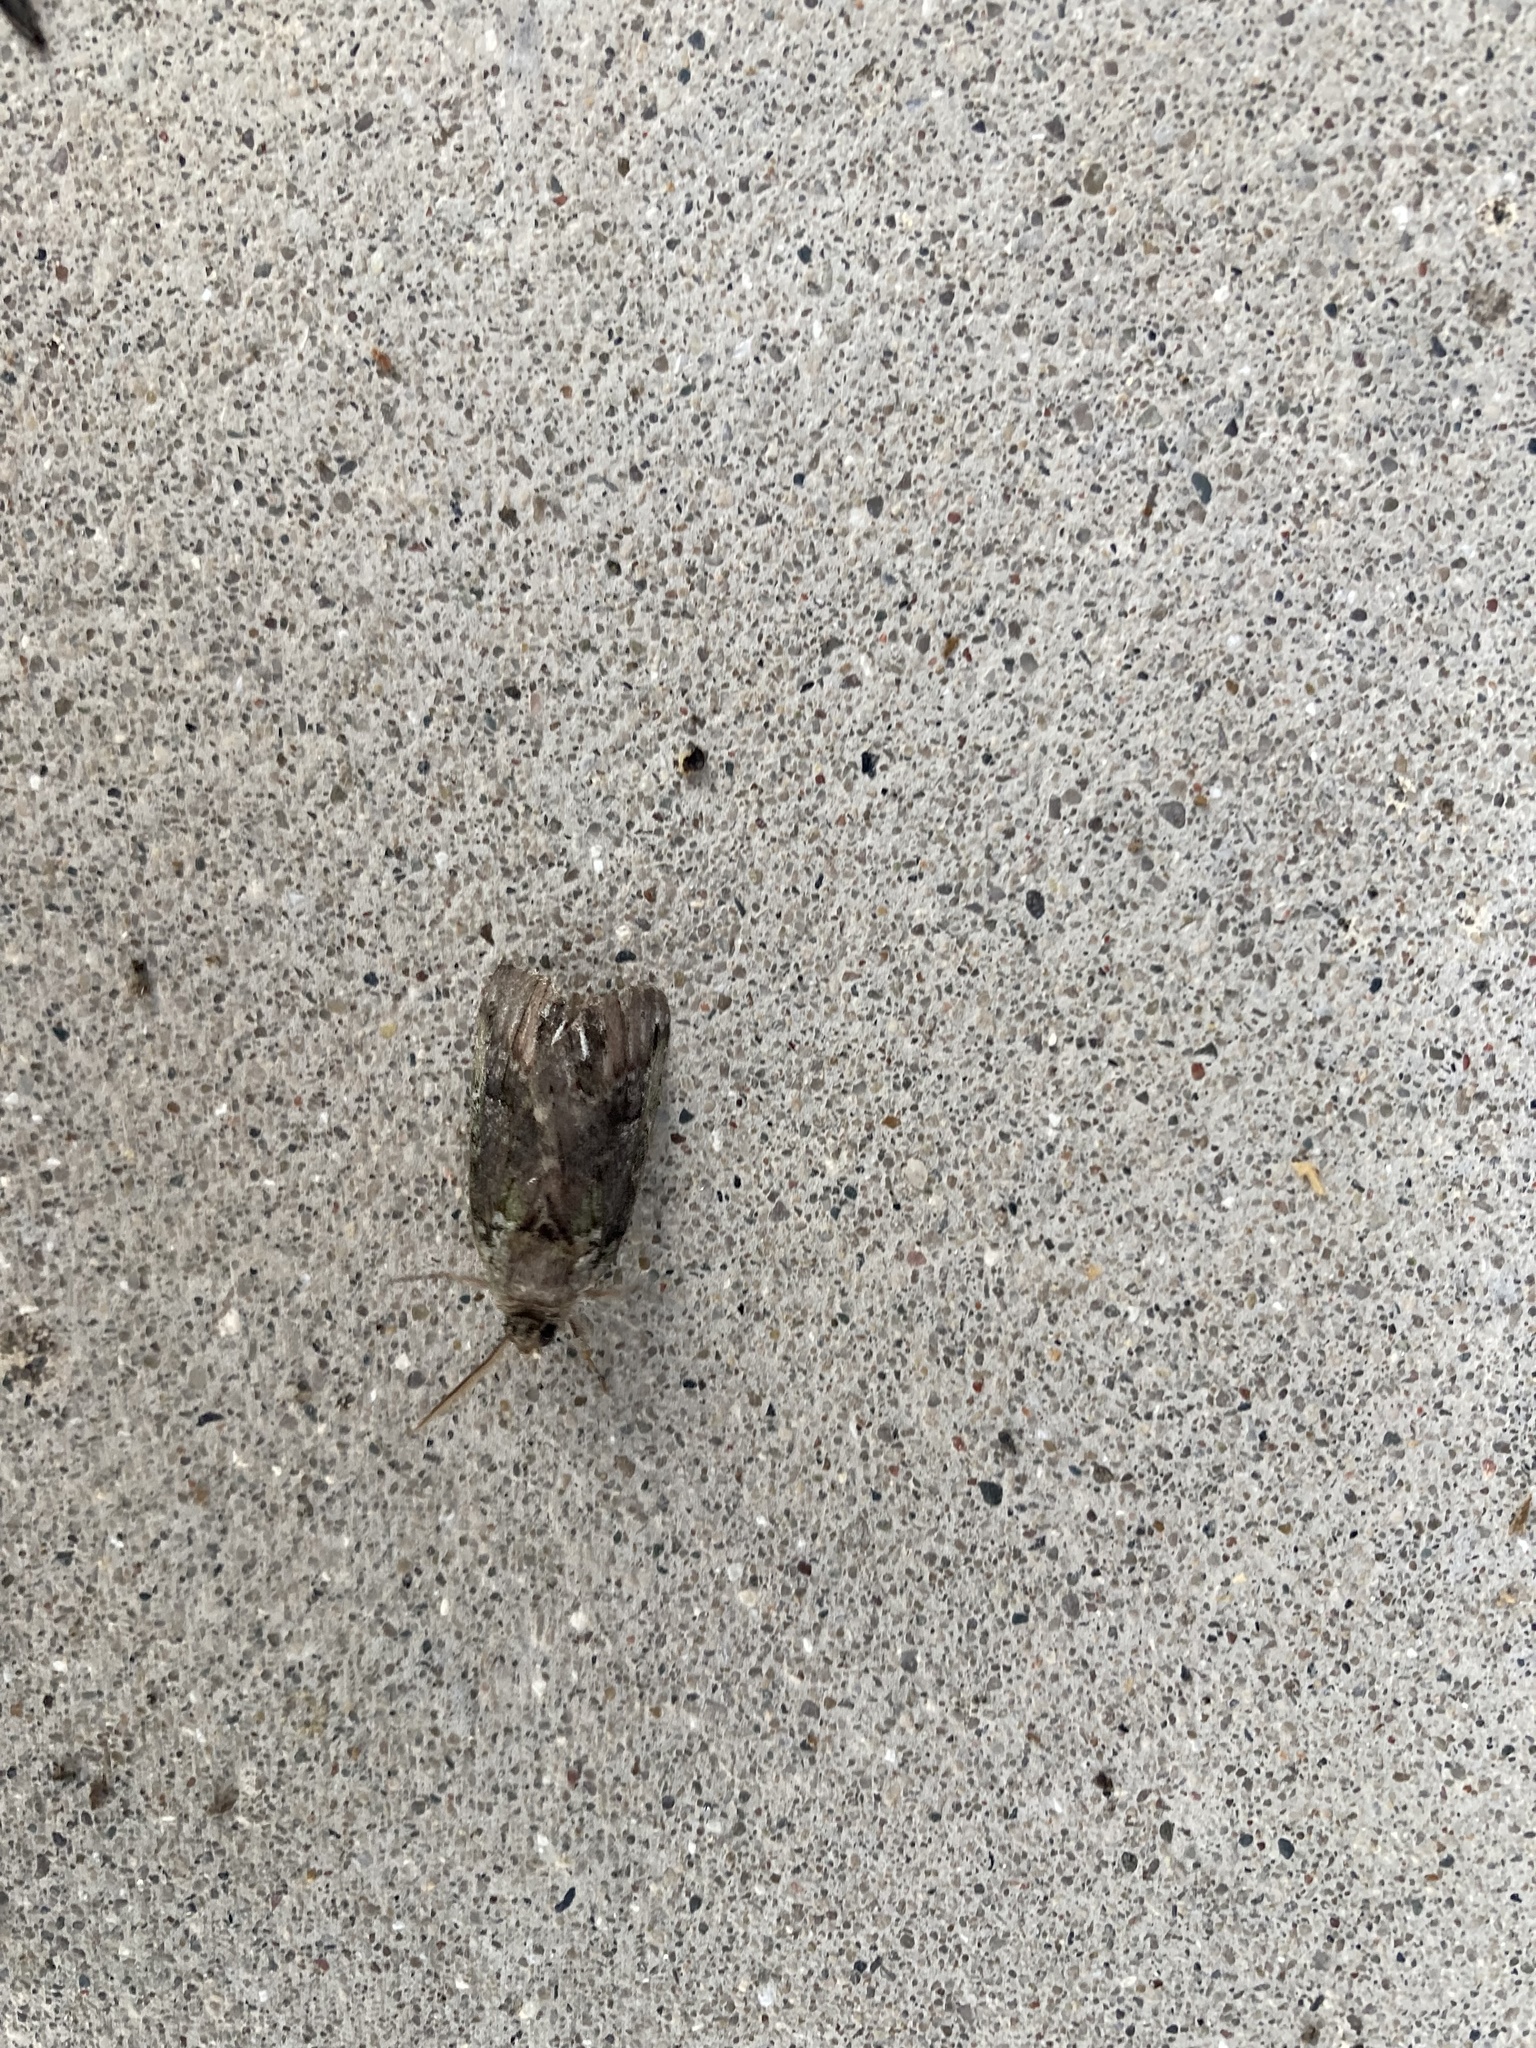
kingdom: Animalia
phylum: Arthropoda
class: Insecta
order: Lepidoptera
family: Notodontidae
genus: Schizura
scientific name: Schizura
